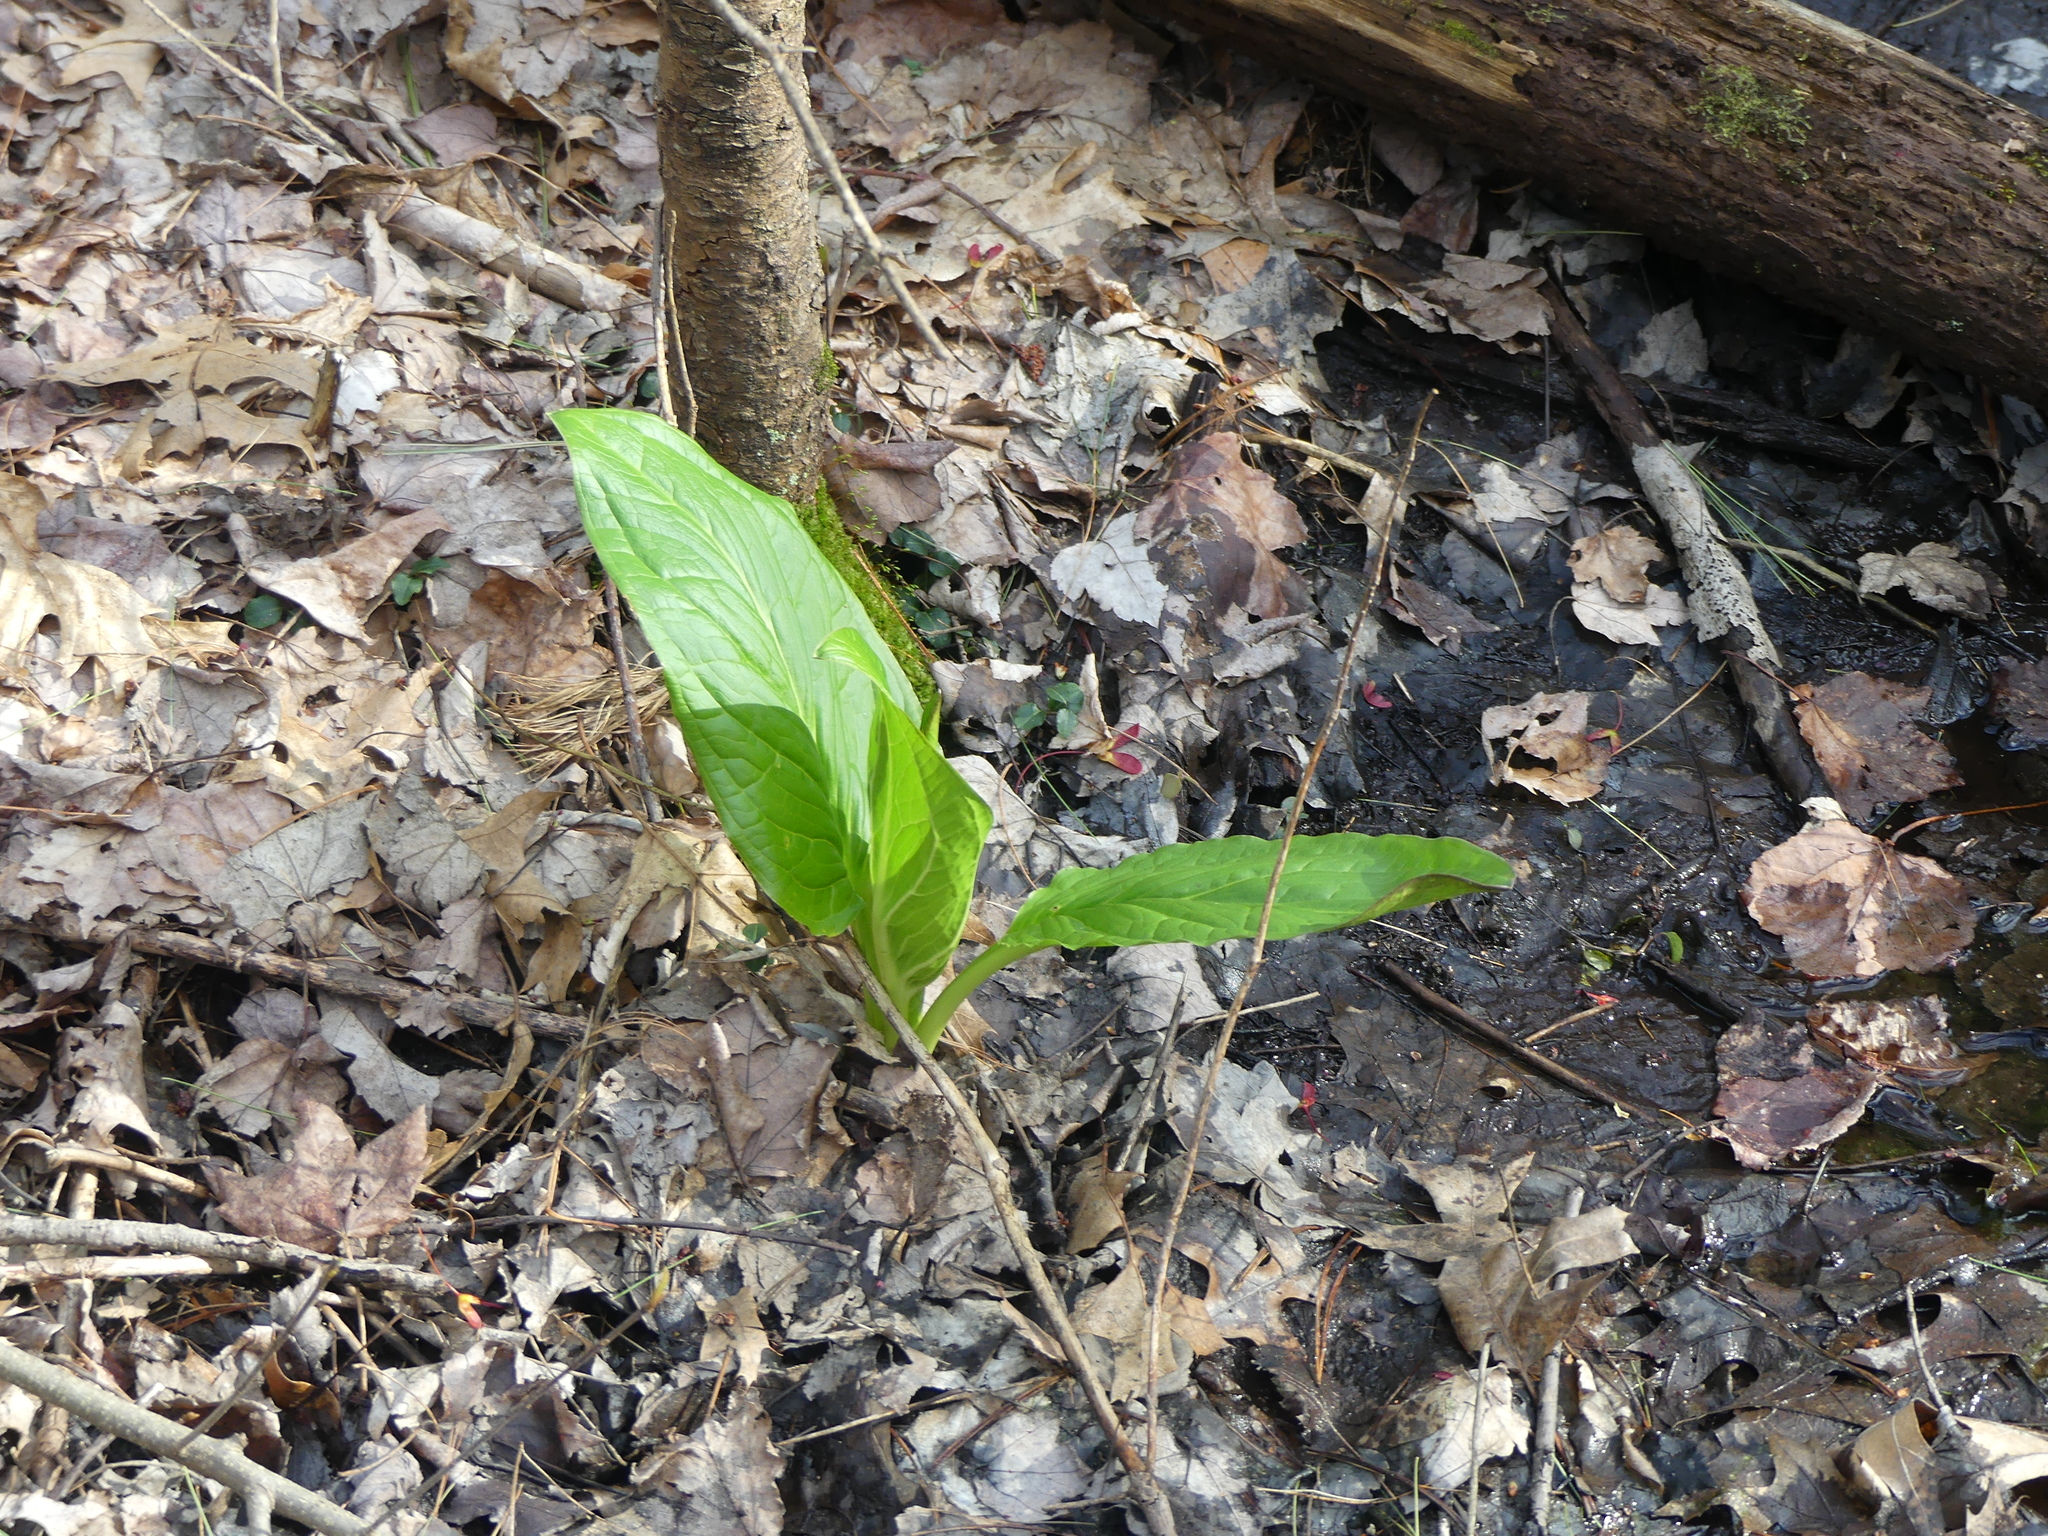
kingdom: Plantae
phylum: Tracheophyta
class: Liliopsida
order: Alismatales
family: Araceae
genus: Symplocarpus
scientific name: Symplocarpus foetidus
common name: Eastern skunk cabbage
